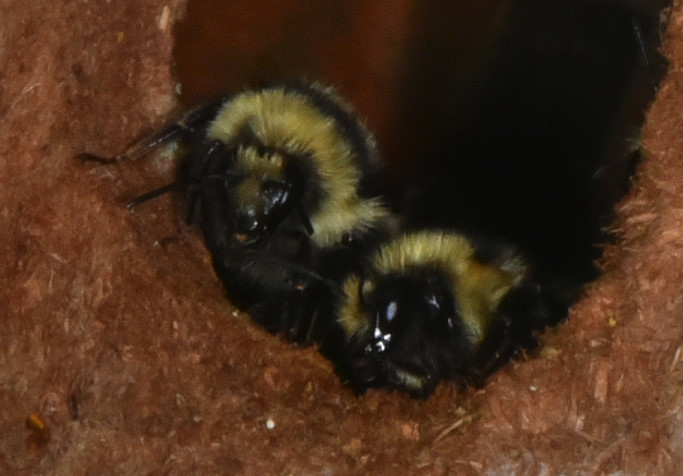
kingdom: Animalia
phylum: Arthropoda
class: Insecta
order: Hymenoptera
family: Apidae
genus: Bombus
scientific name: Bombus melanopygus
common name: Black tail bumble bee
